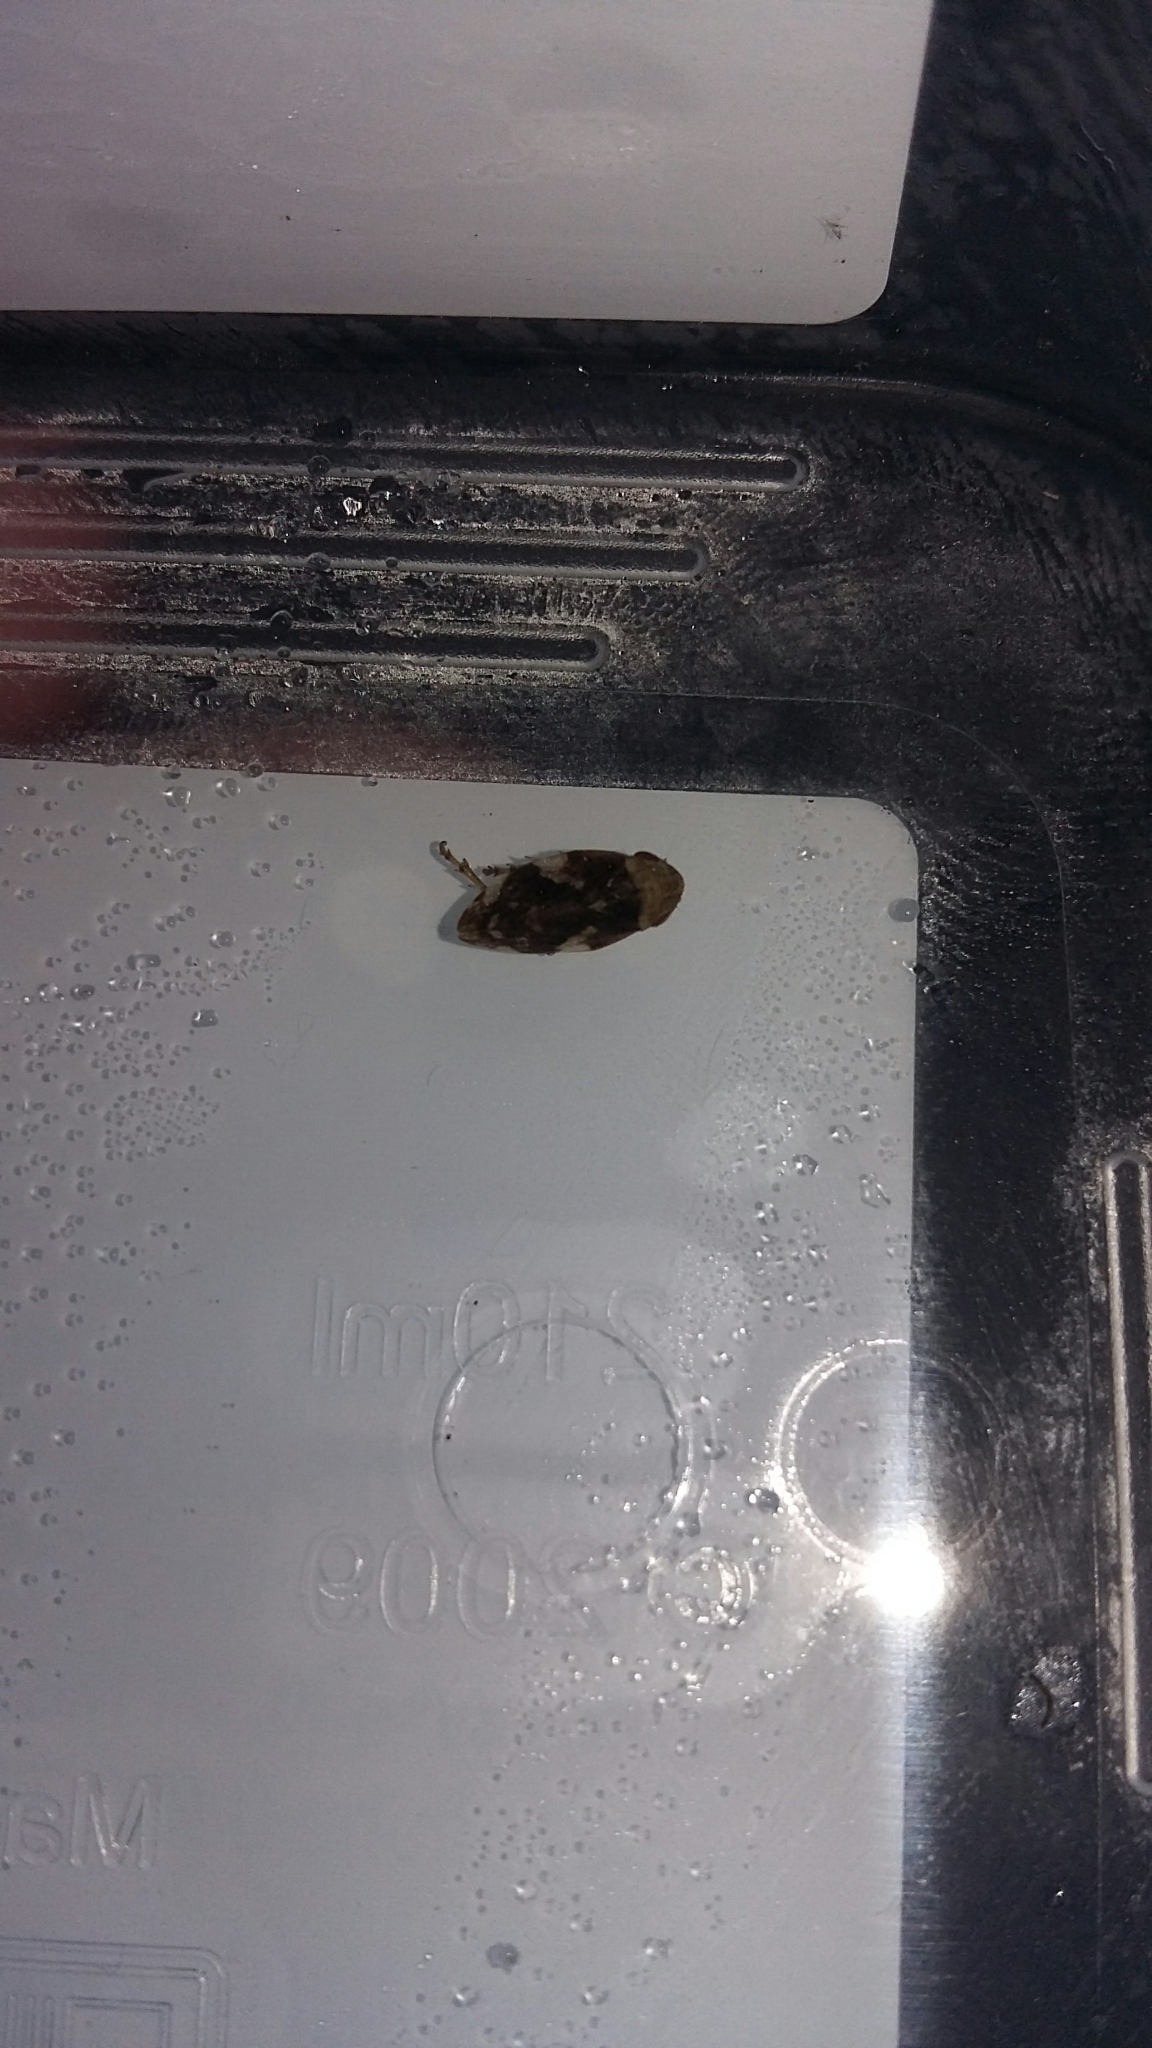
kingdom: Animalia
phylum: Arthropoda
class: Insecta
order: Hemiptera
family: Aphrophoridae
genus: Philaenus
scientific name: Philaenus spumarius
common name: Meadow spittlebug
